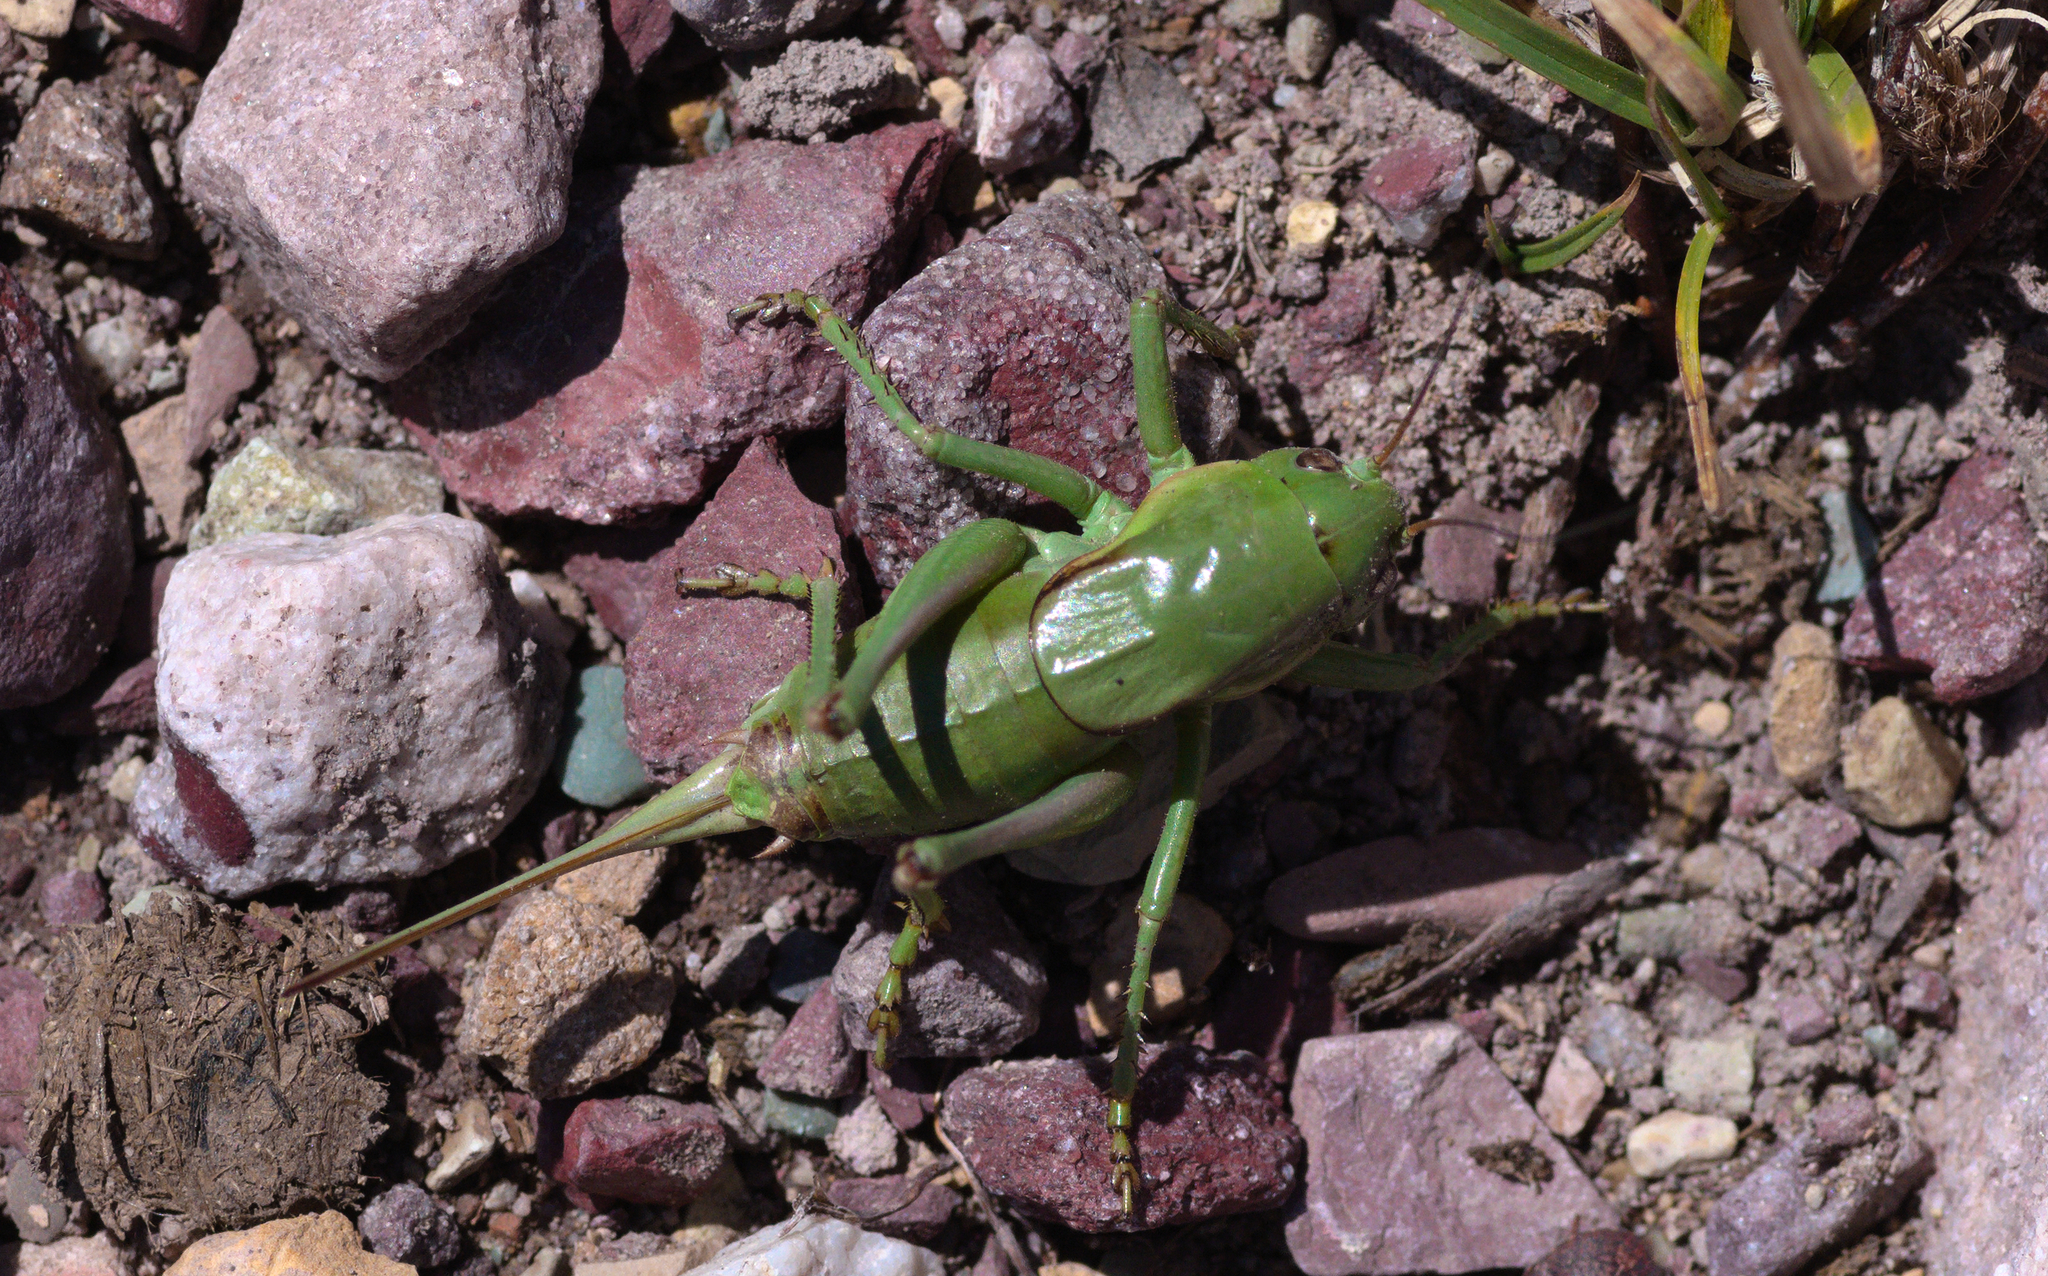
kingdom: Animalia
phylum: Arthropoda
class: Insecta
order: Orthoptera
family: Tettigoniidae
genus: Anabrus
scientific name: Anabrus simplex
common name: Mormon cricket
